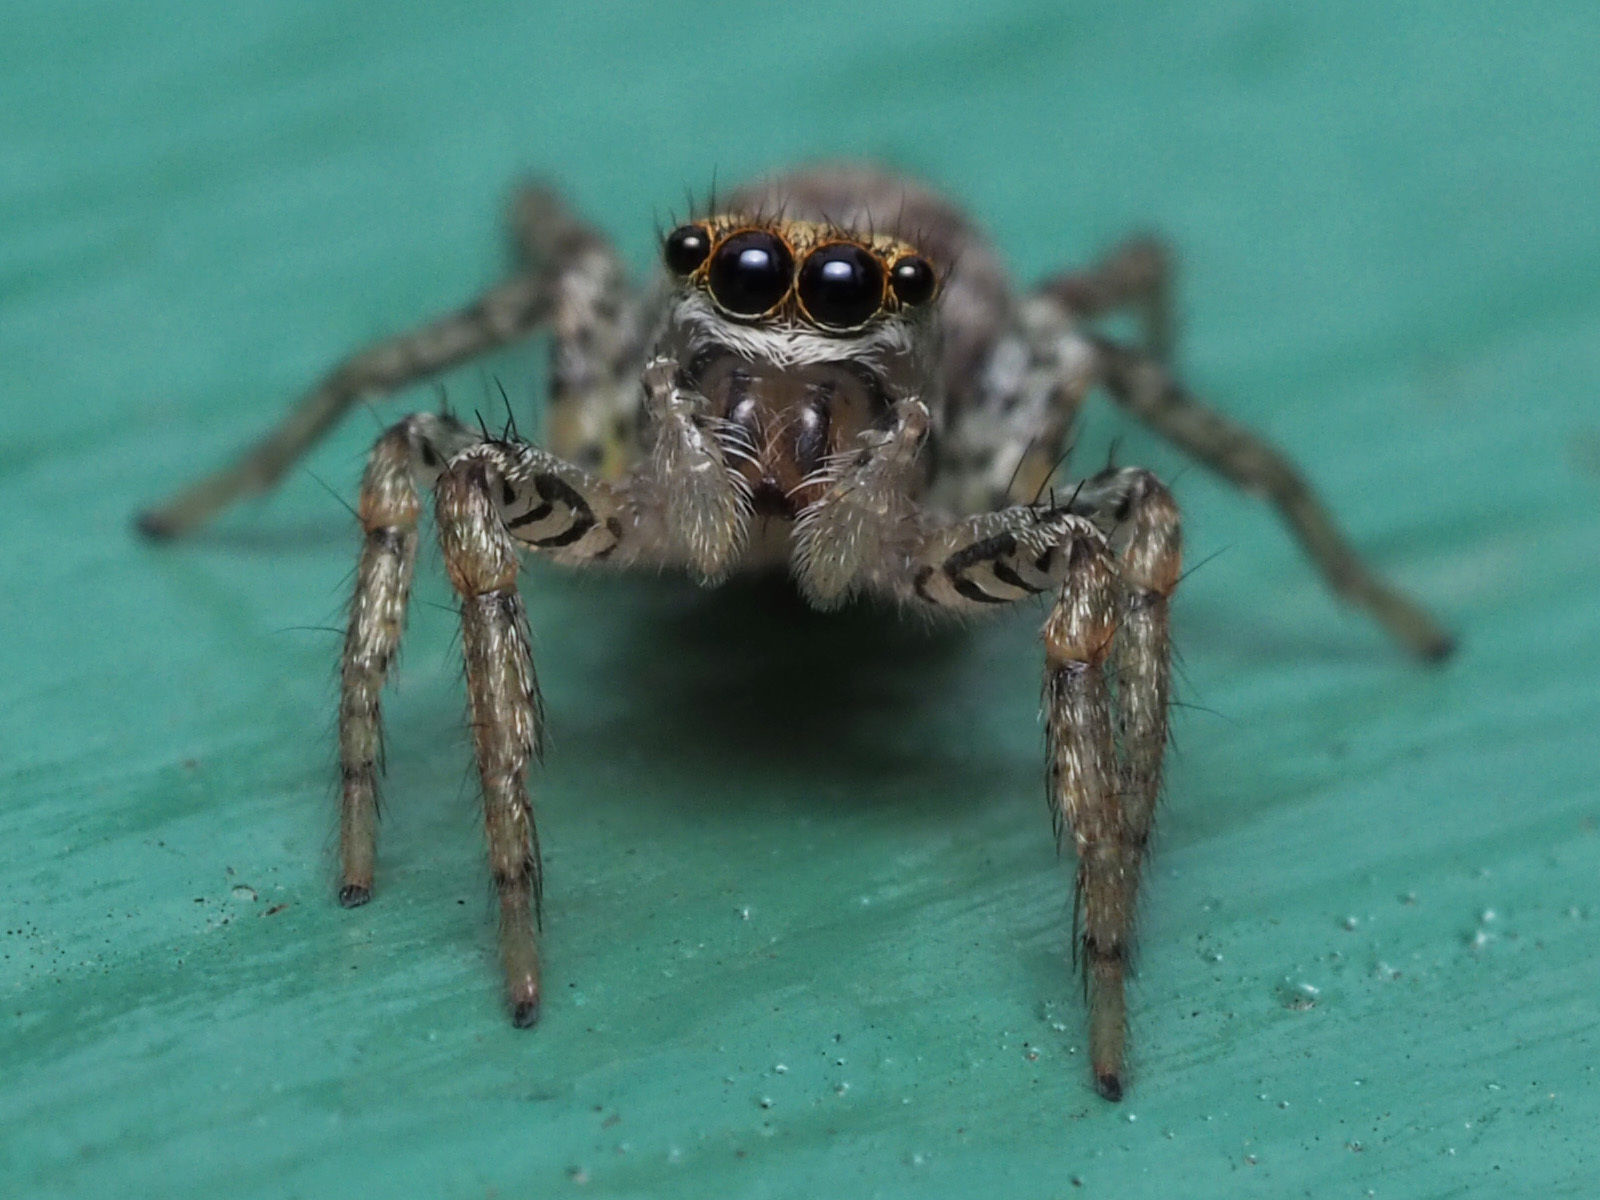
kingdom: Animalia
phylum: Arthropoda
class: Arachnida
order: Araneae
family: Salticidae
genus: Maevia
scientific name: Maevia inclemens
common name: Dimorphic jumper
